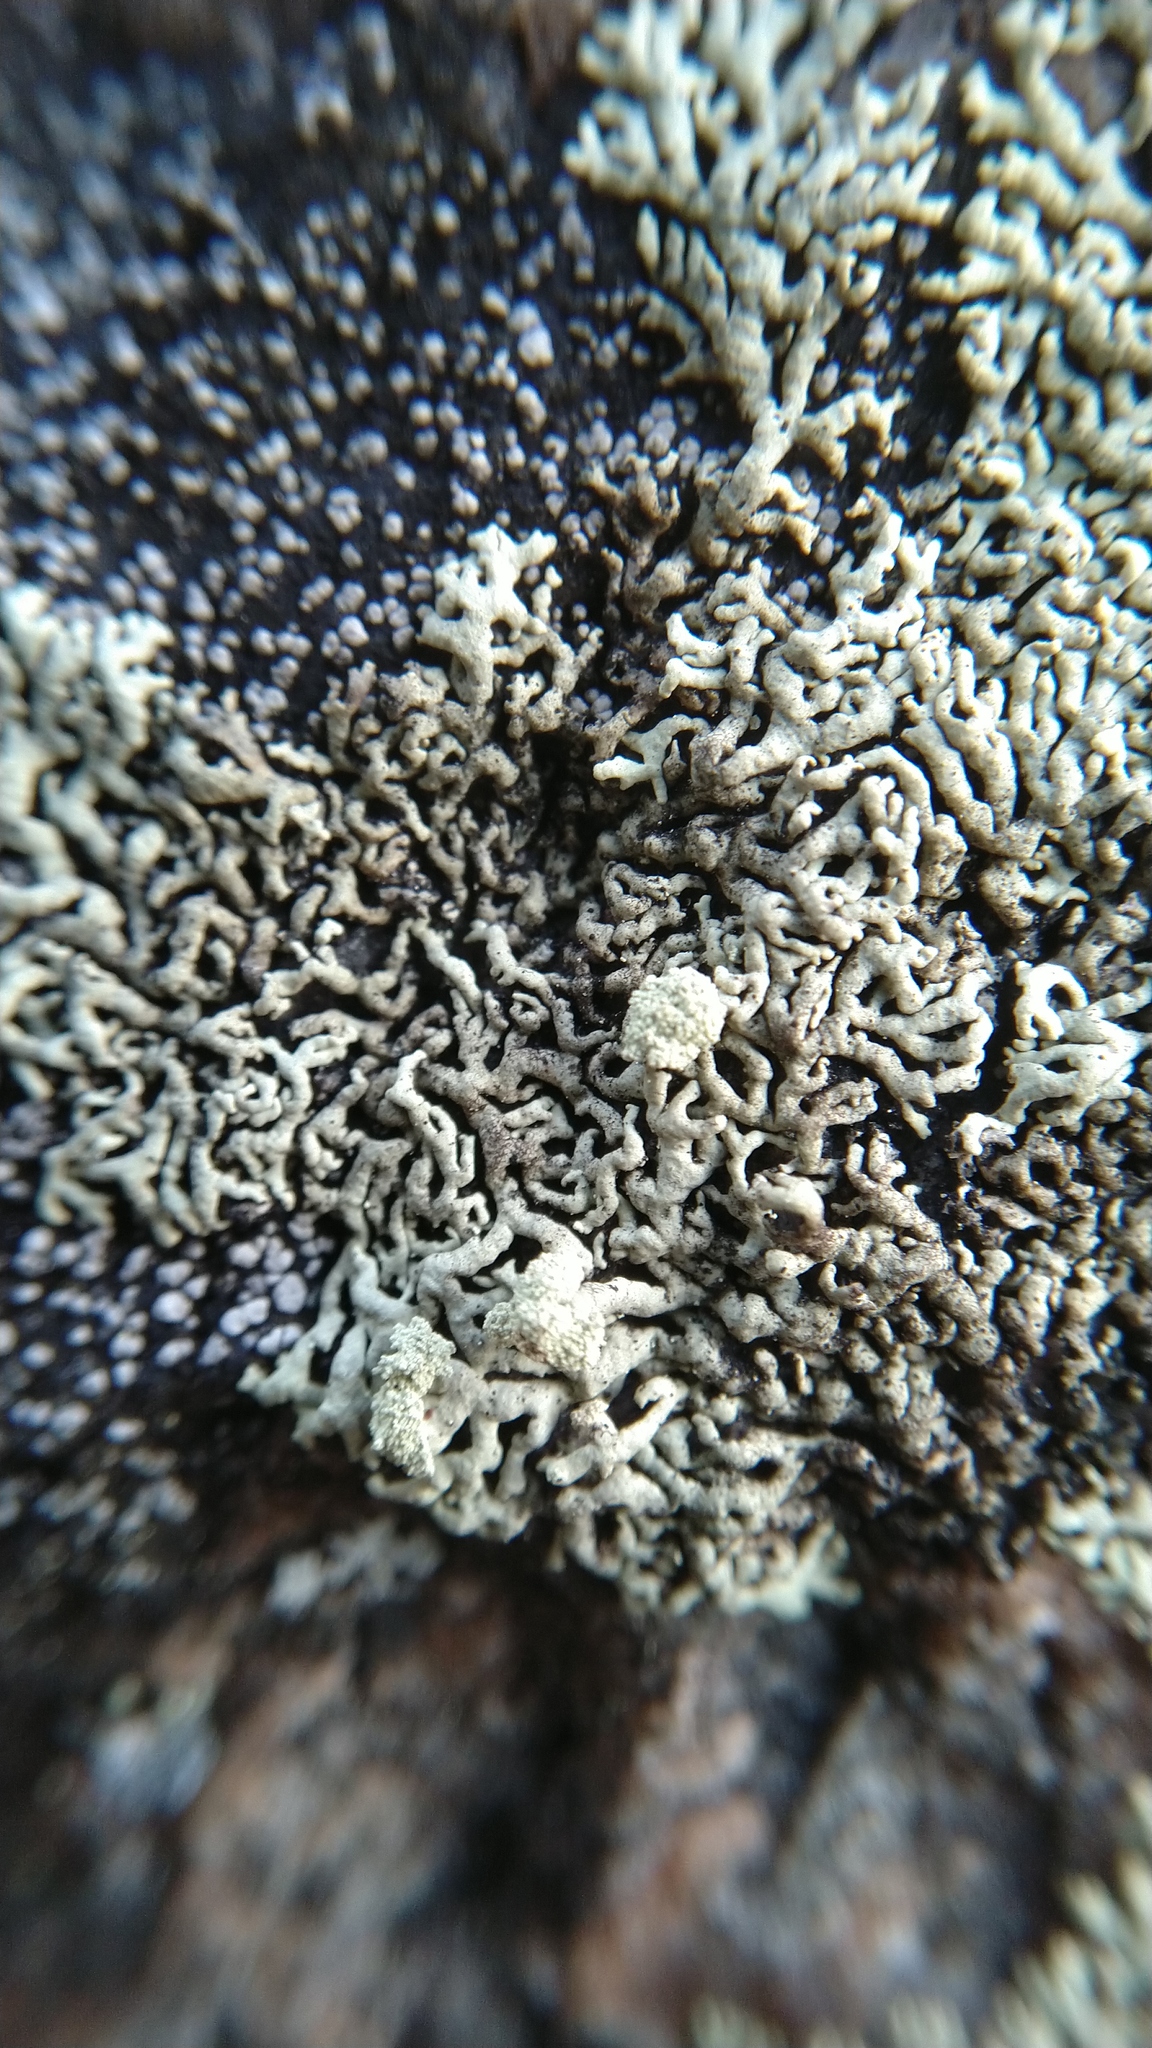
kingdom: Fungi
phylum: Ascomycota
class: Lecanoromycetes
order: Lecanorales
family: Parmeliaceae
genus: Arctoparmelia
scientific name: Arctoparmelia incurva
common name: Bent ring lichen
